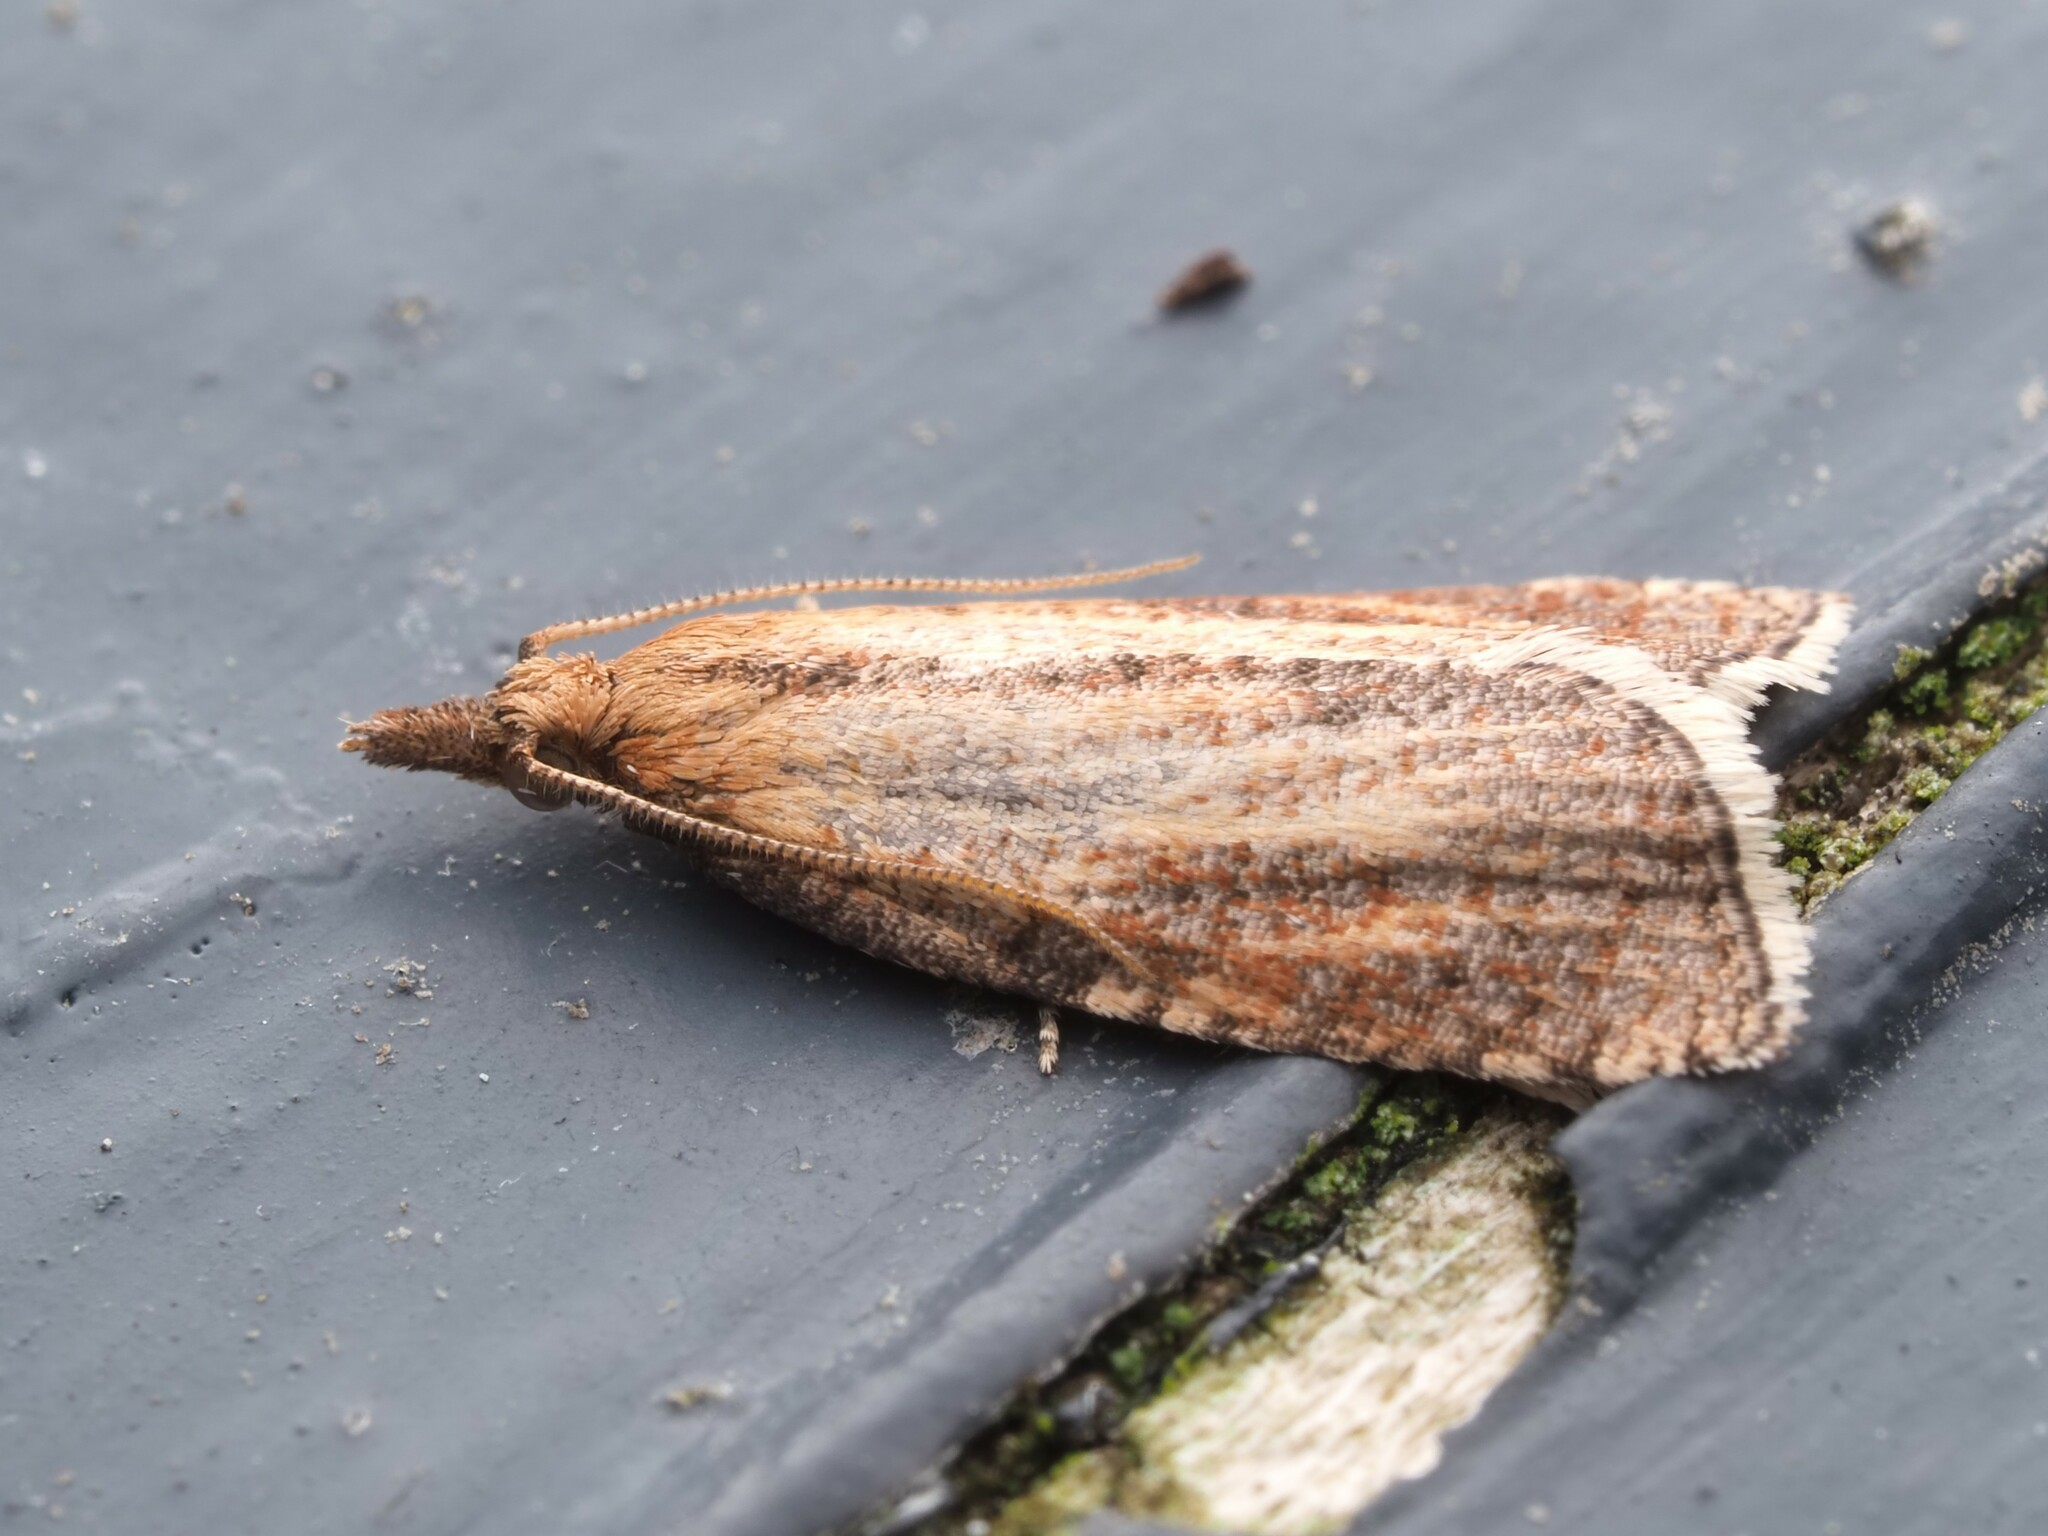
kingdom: Animalia
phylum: Arthropoda
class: Insecta
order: Lepidoptera
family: Tortricidae
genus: Catamacta
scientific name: Catamacta lotinana
